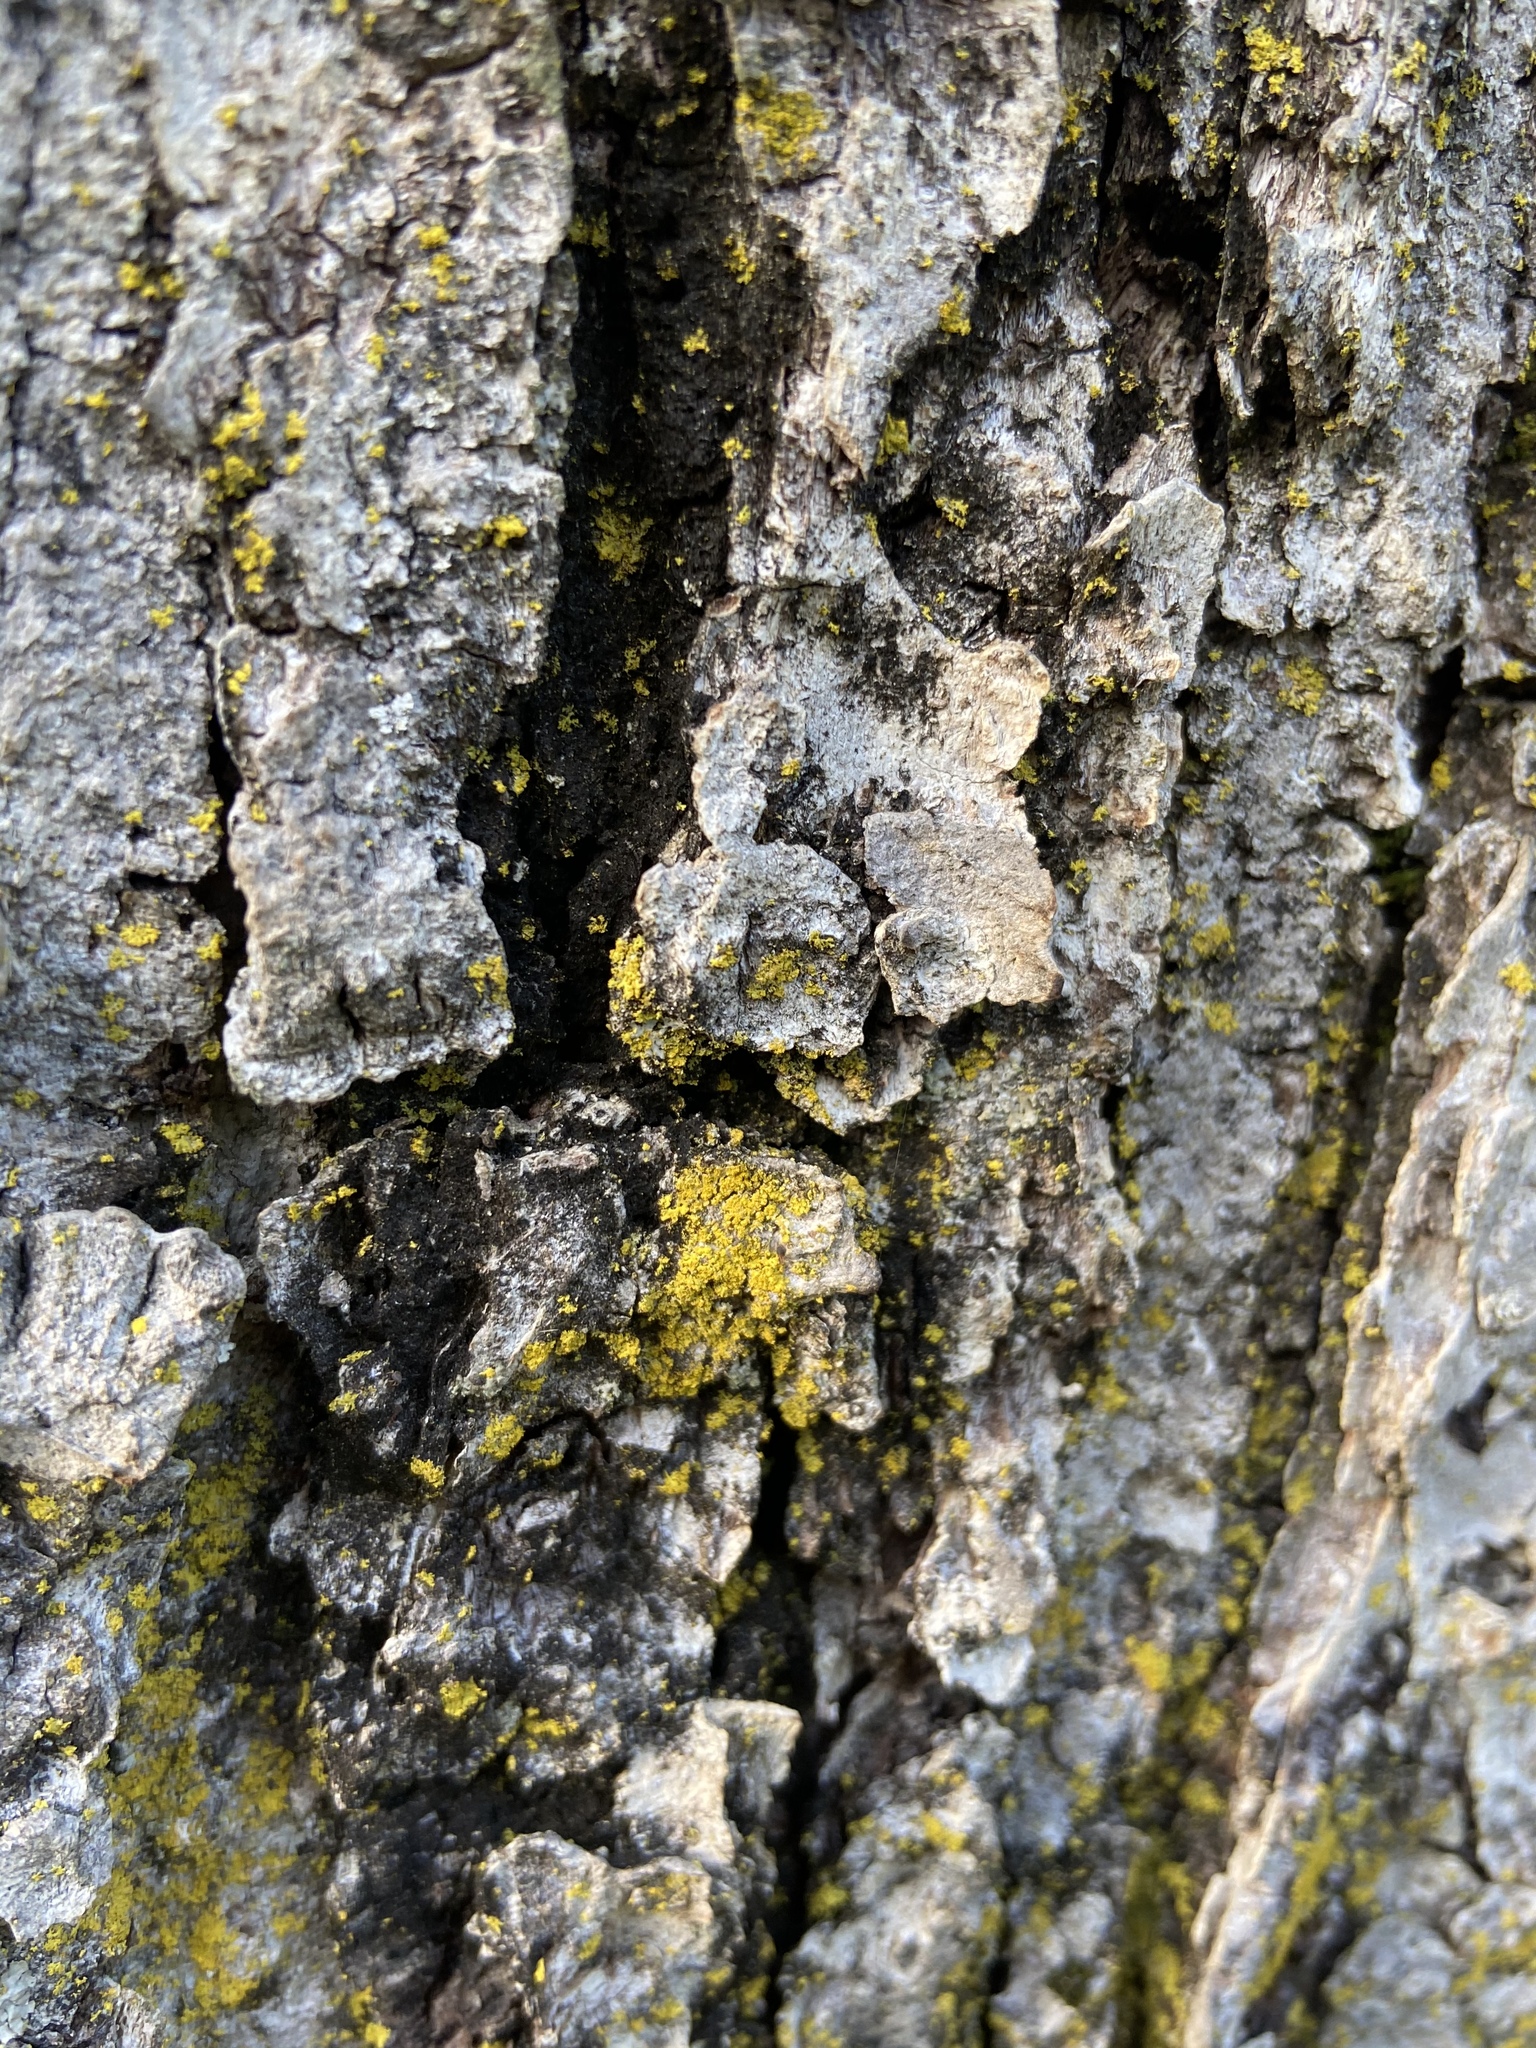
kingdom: Fungi
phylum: Ascomycota
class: Arthoniomycetes
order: Arthoniales
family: Chrysotrichaceae
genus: Chrysothrix
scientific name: Chrysothrix candelaris
